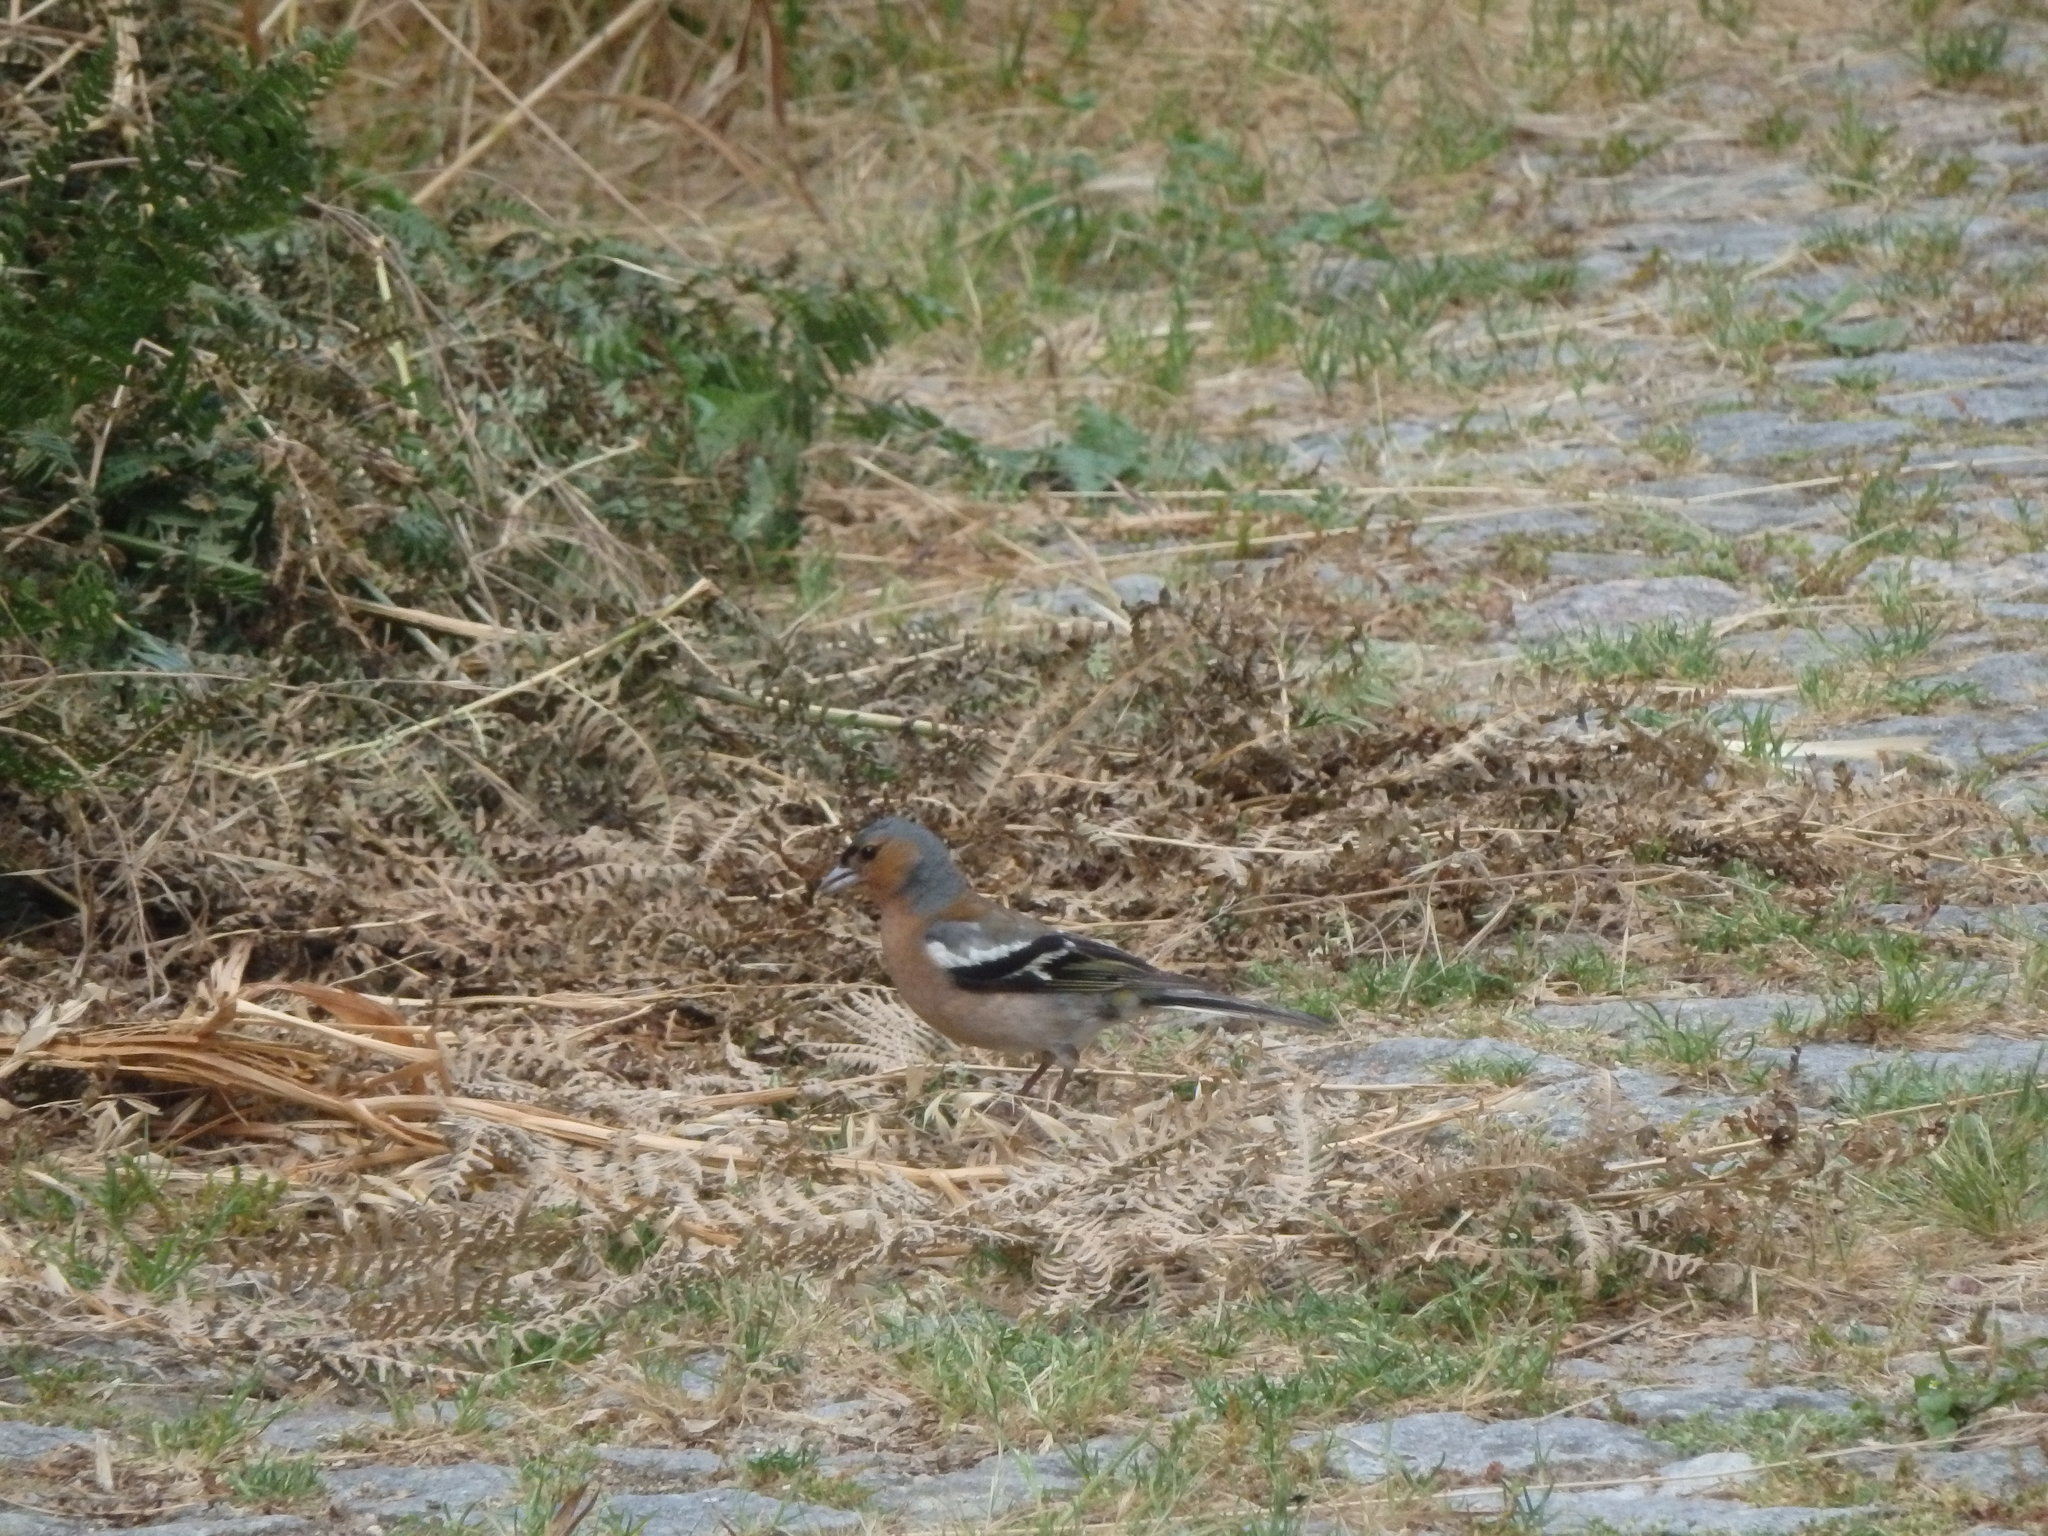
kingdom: Animalia
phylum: Chordata
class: Aves
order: Passeriformes
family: Fringillidae
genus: Fringilla
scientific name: Fringilla coelebs
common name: Common chaffinch
